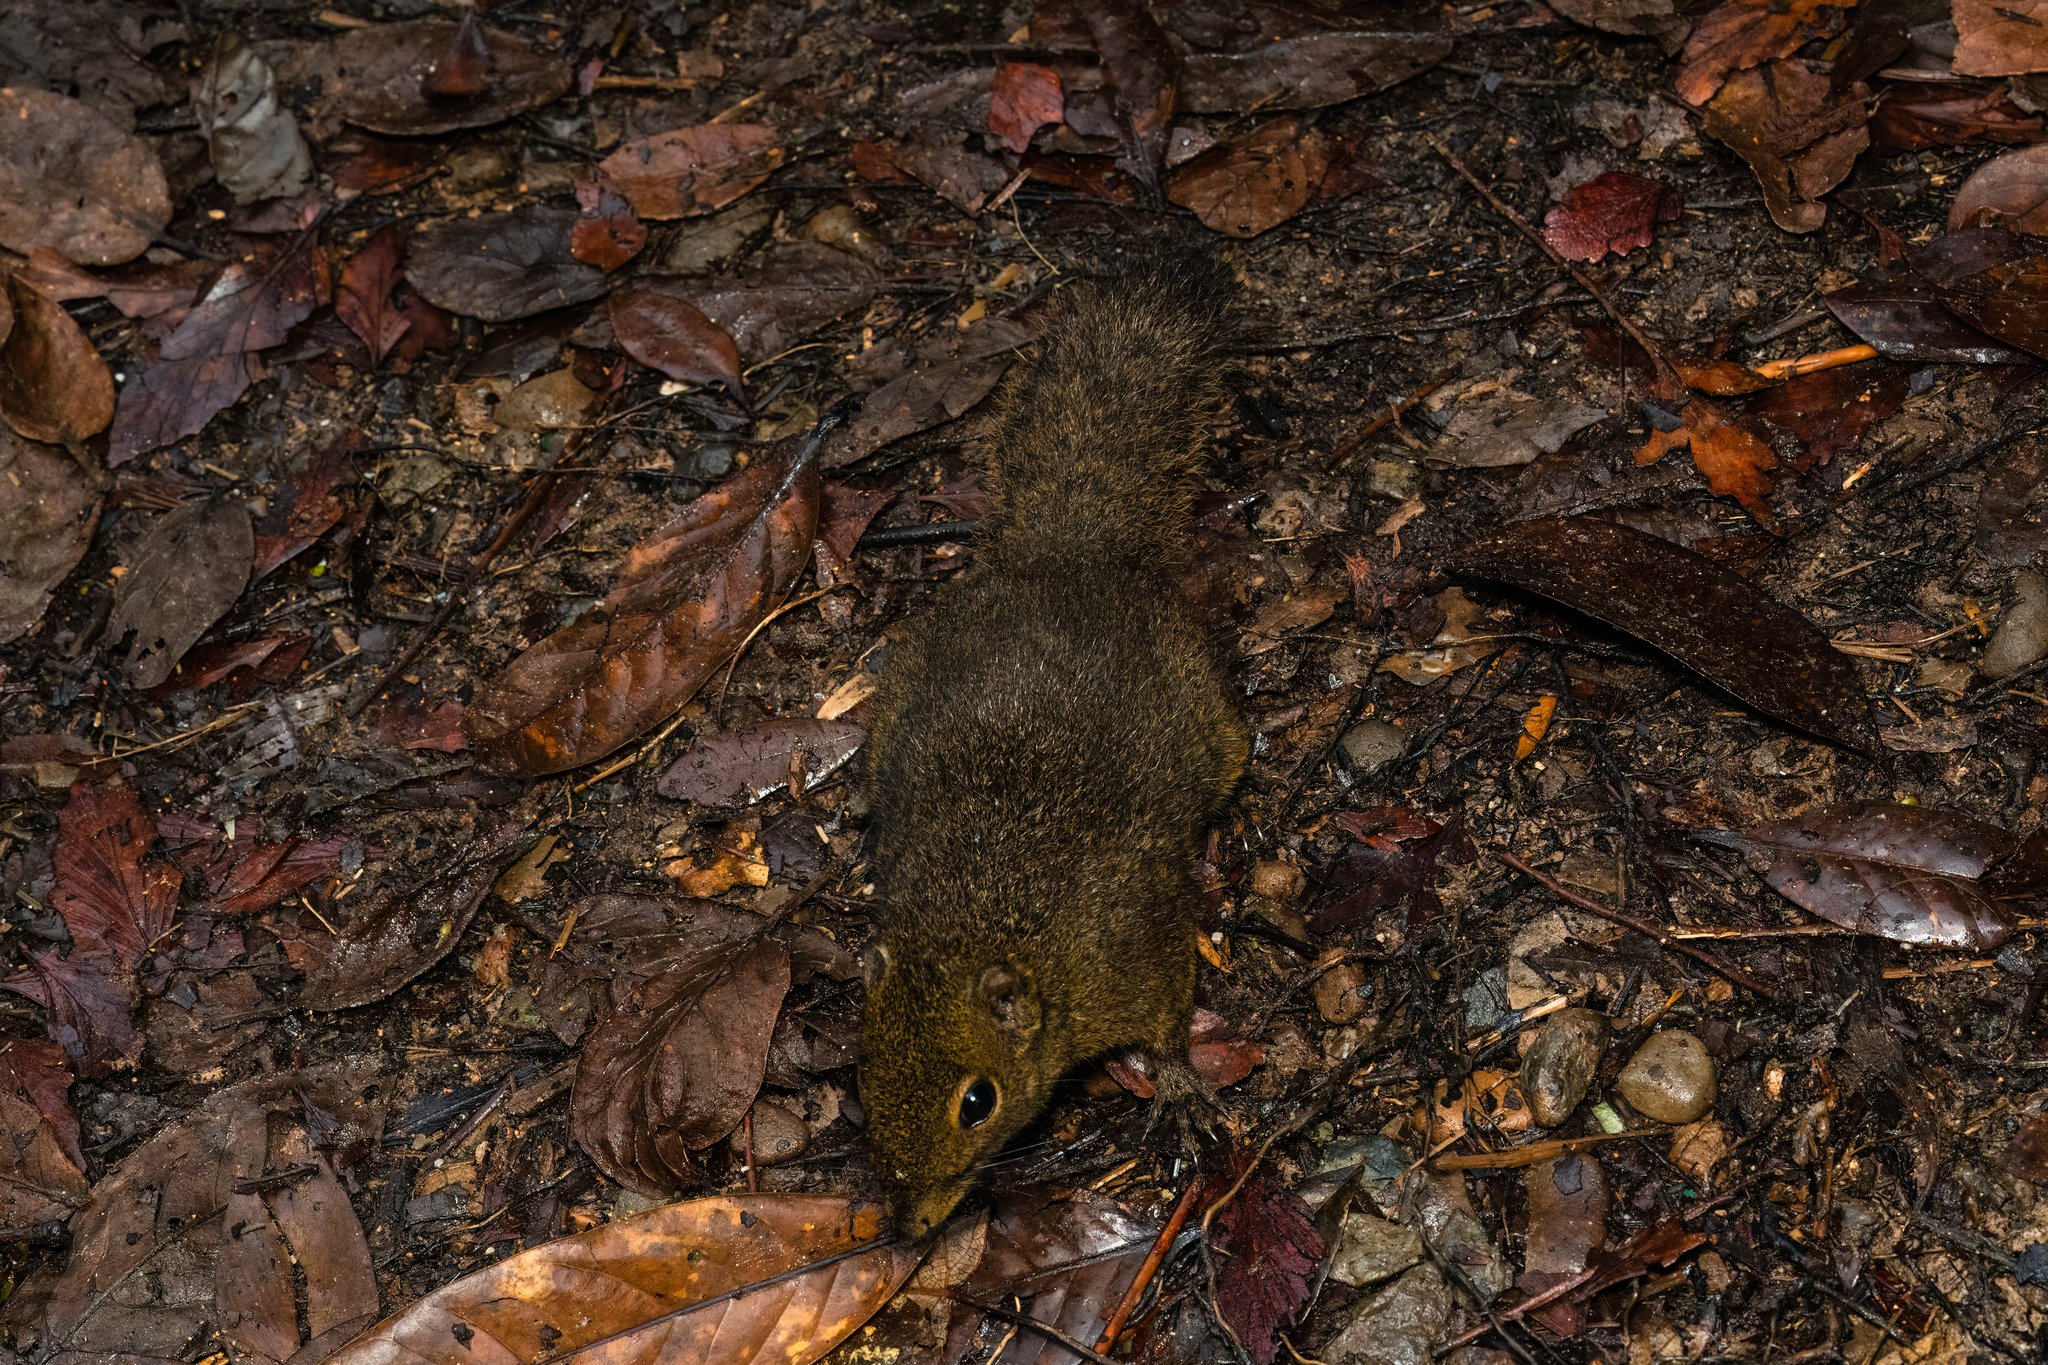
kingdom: Animalia
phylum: Chordata
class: Mammalia
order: Rodentia
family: Sciuridae
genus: Sundasciurus
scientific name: Sundasciurus everetti
